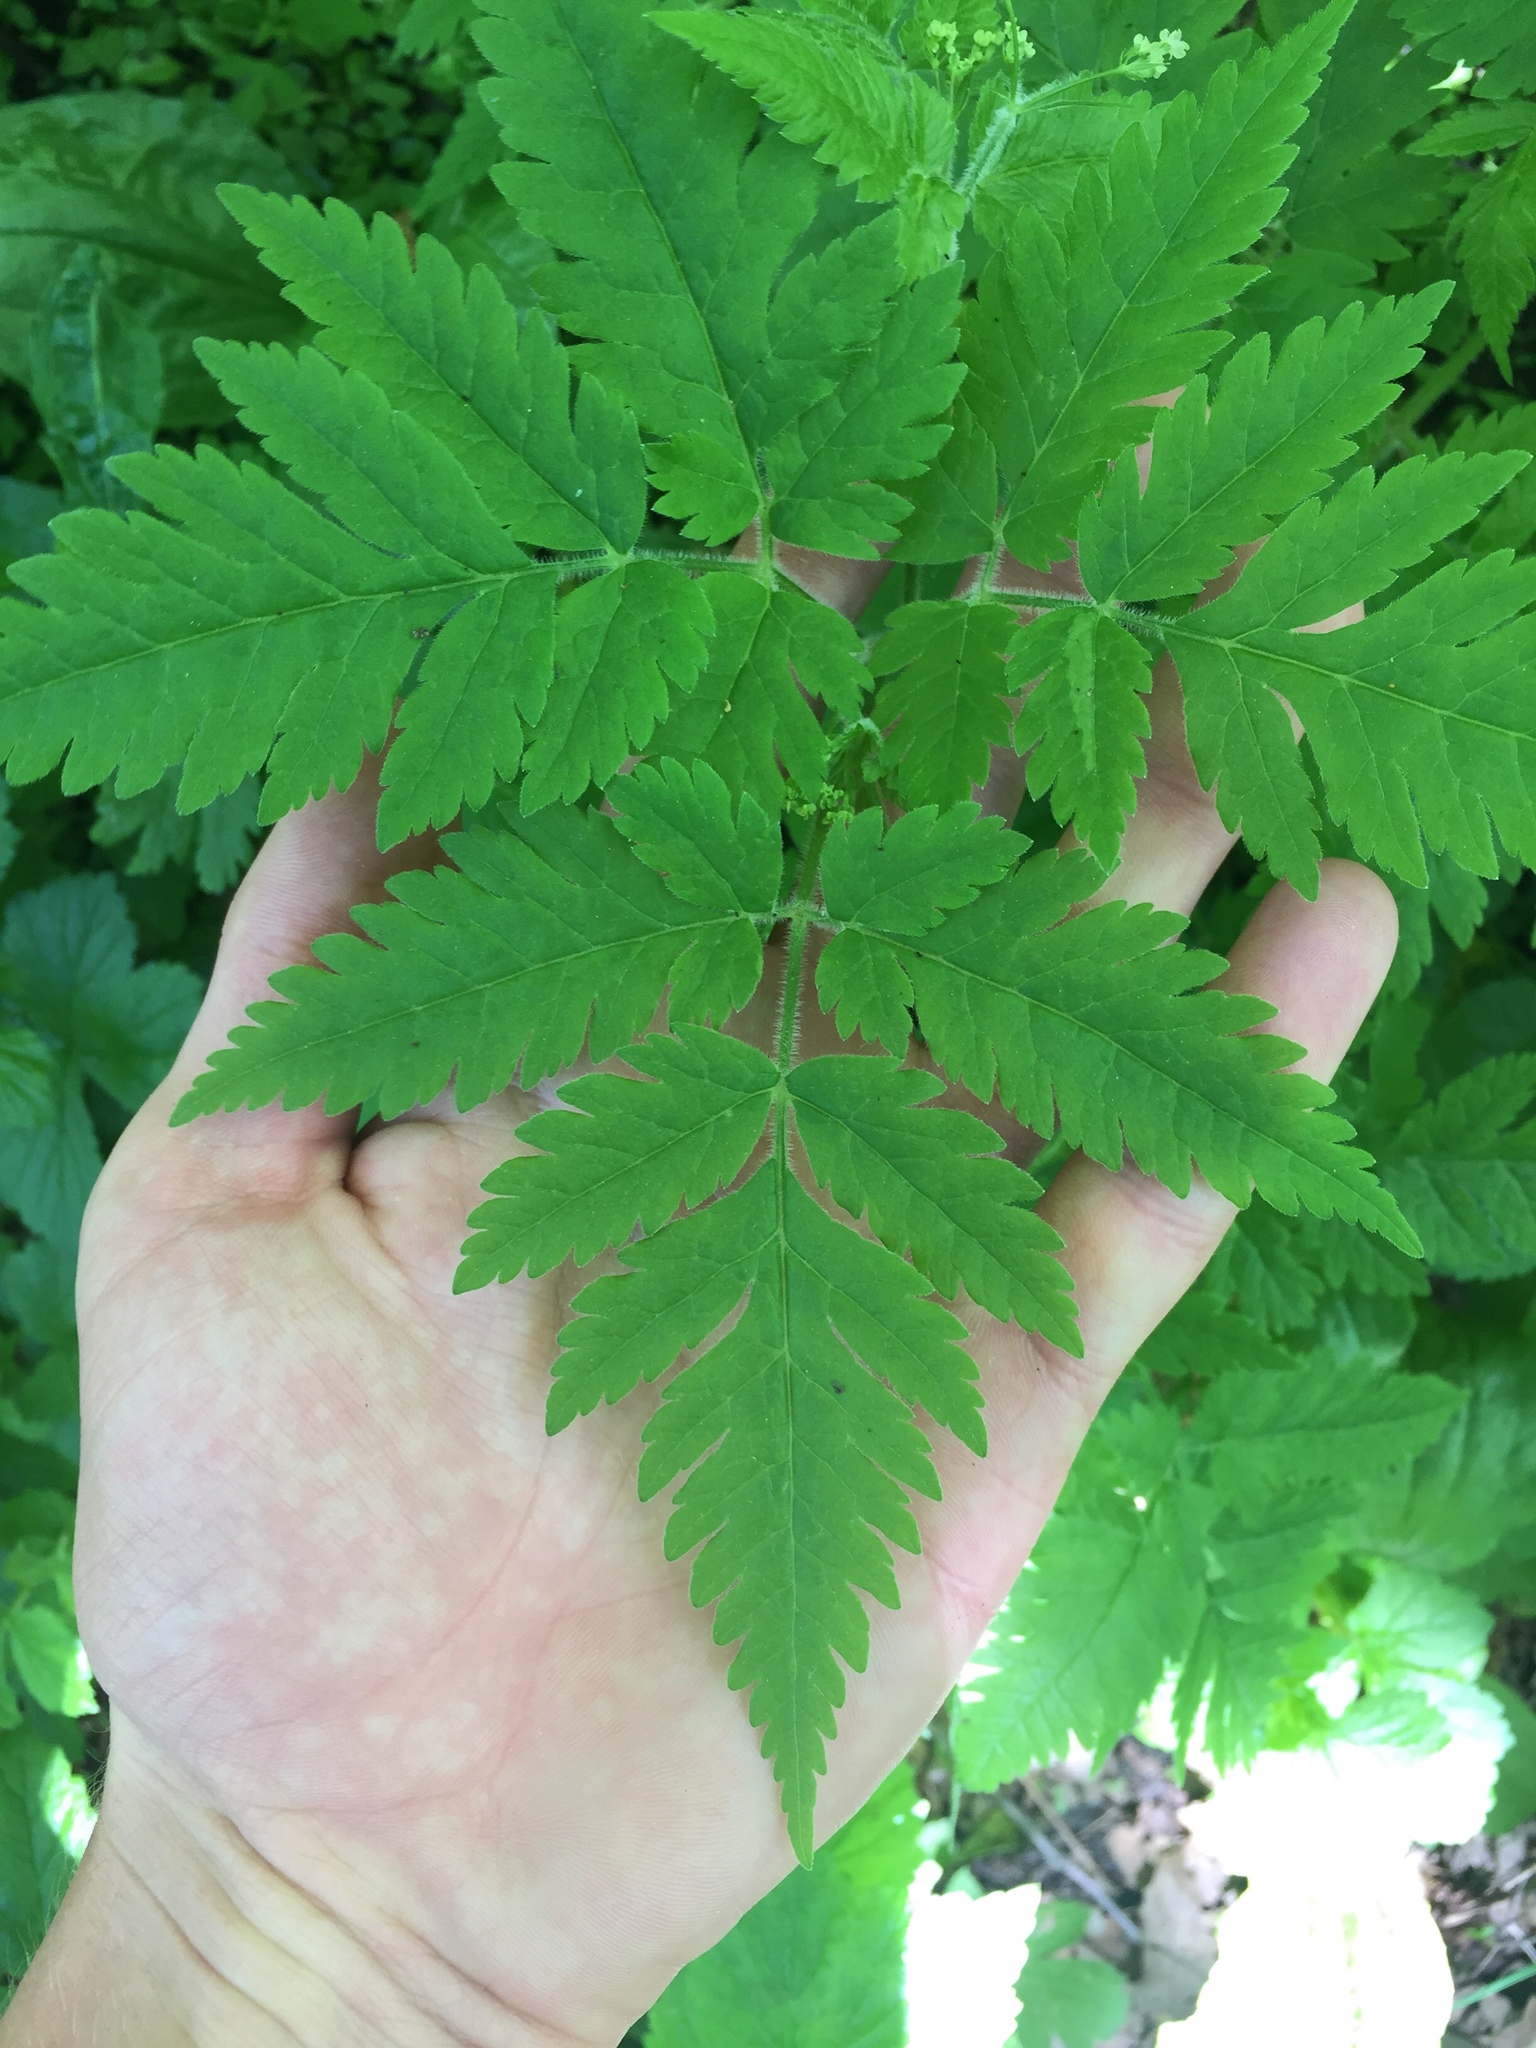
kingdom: Plantae
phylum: Tracheophyta
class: Magnoliopsida
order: Apiales
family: Apiaceae
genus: Osmorhiza
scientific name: Osmorhiza claytonii
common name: Hairy sweet cicely
